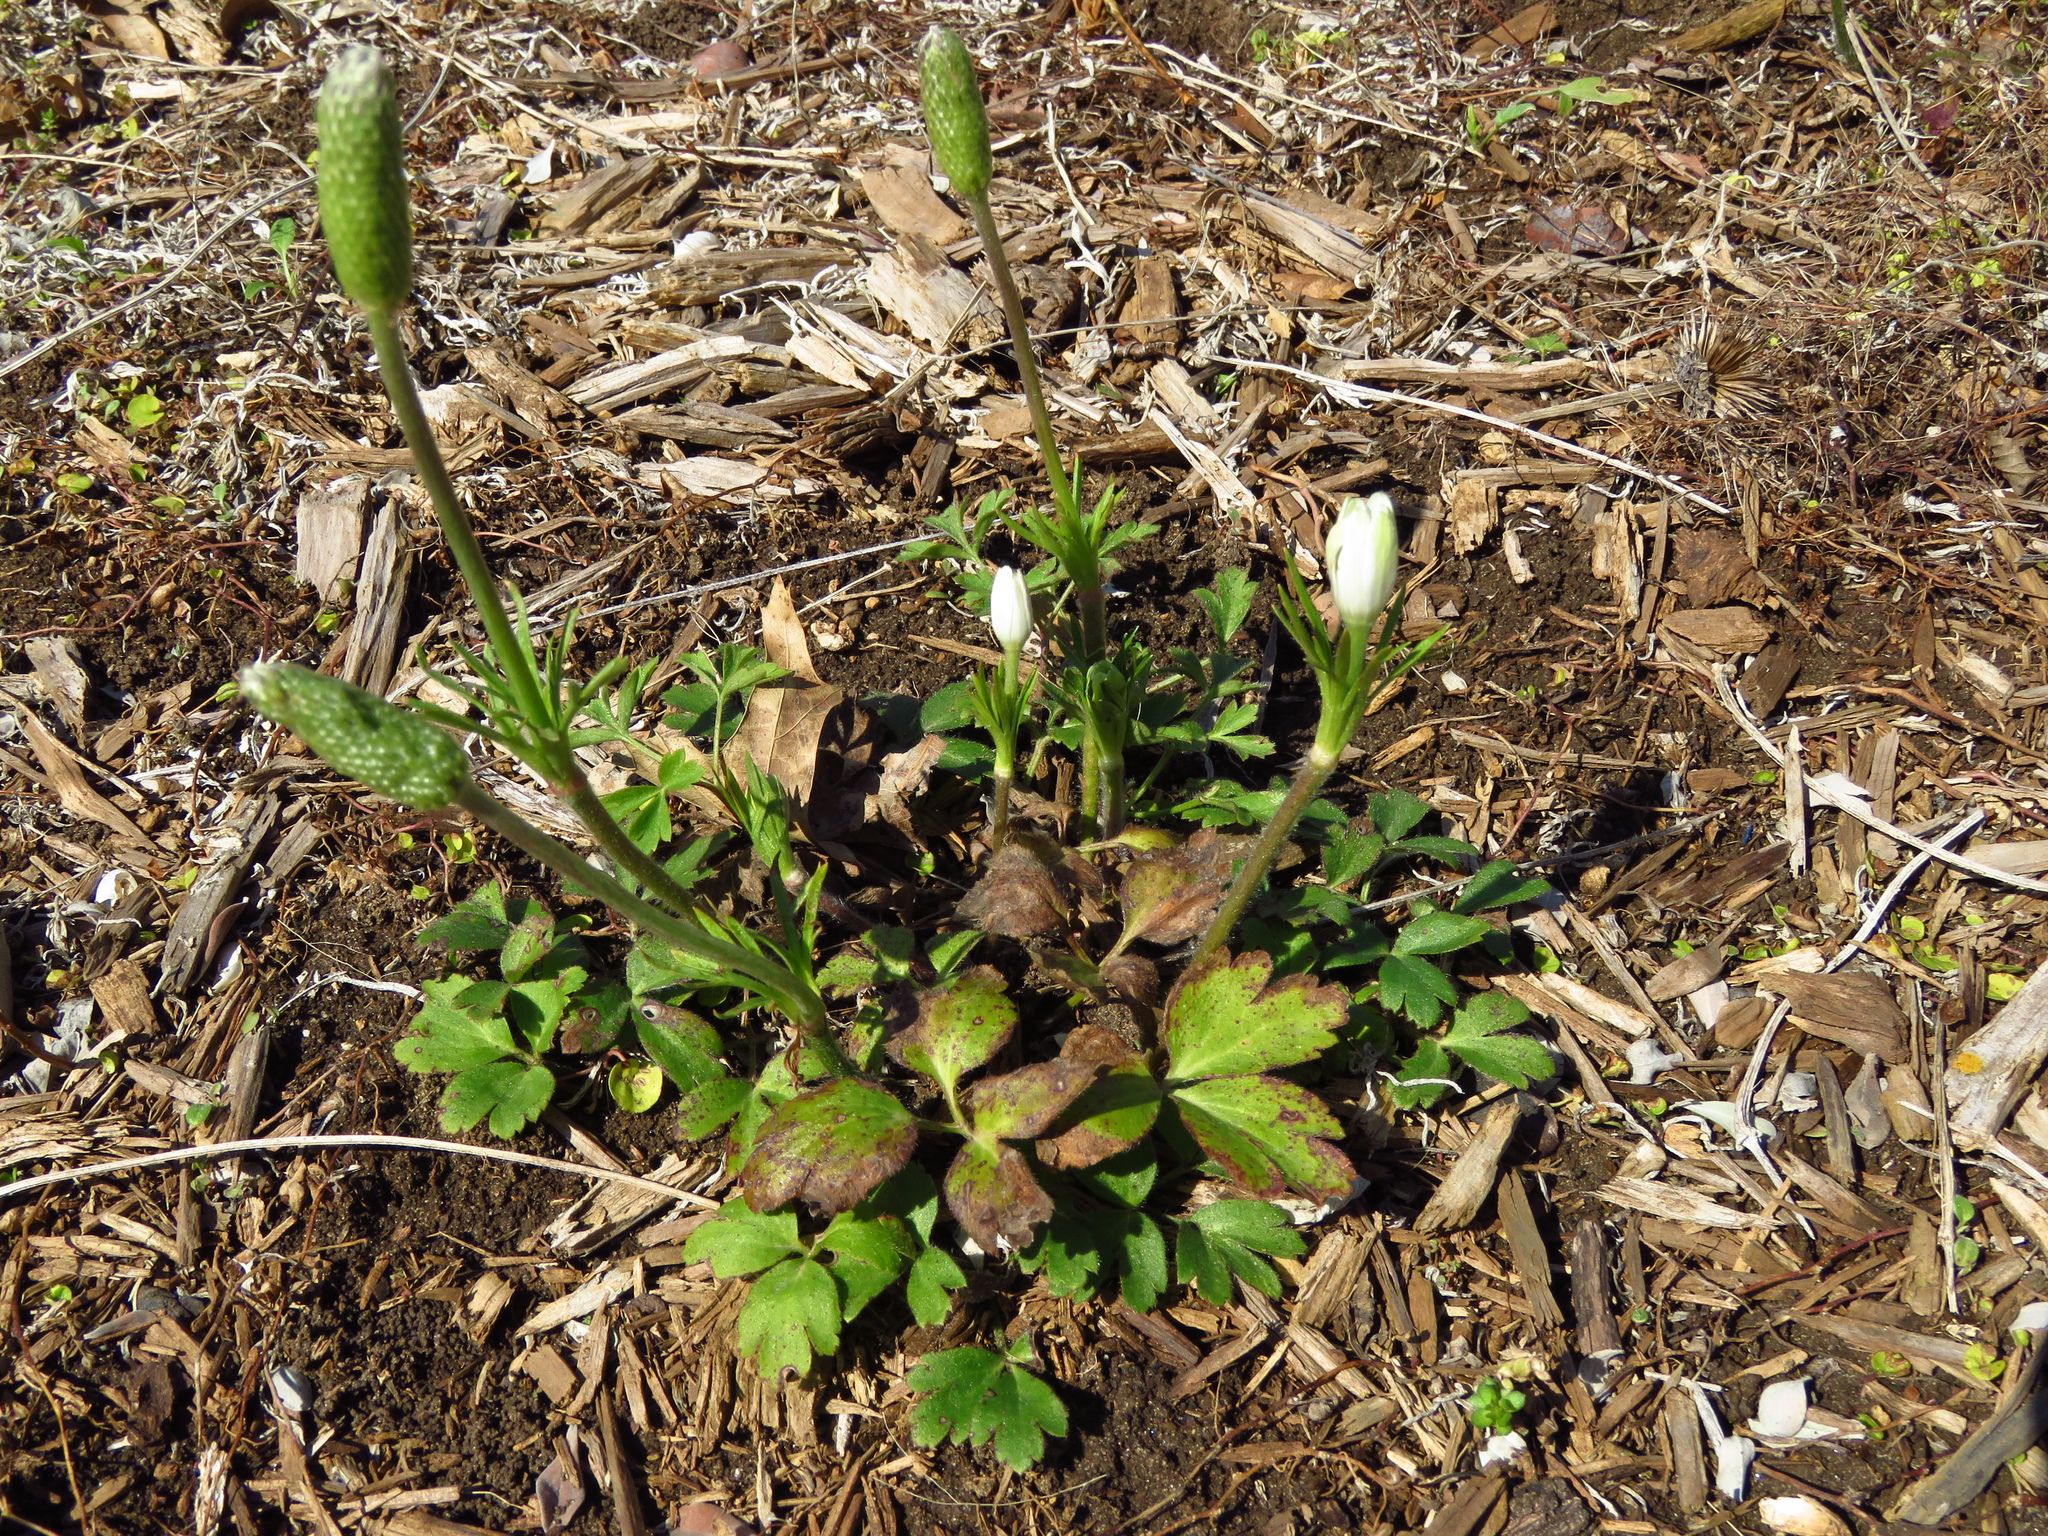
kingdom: Plantae
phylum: Tracheophyta
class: Magnoliopsida
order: Ranunculales
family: Ranunculaceae
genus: Anemone
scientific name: Anemone berlandieri
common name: Ten-petal anemone
